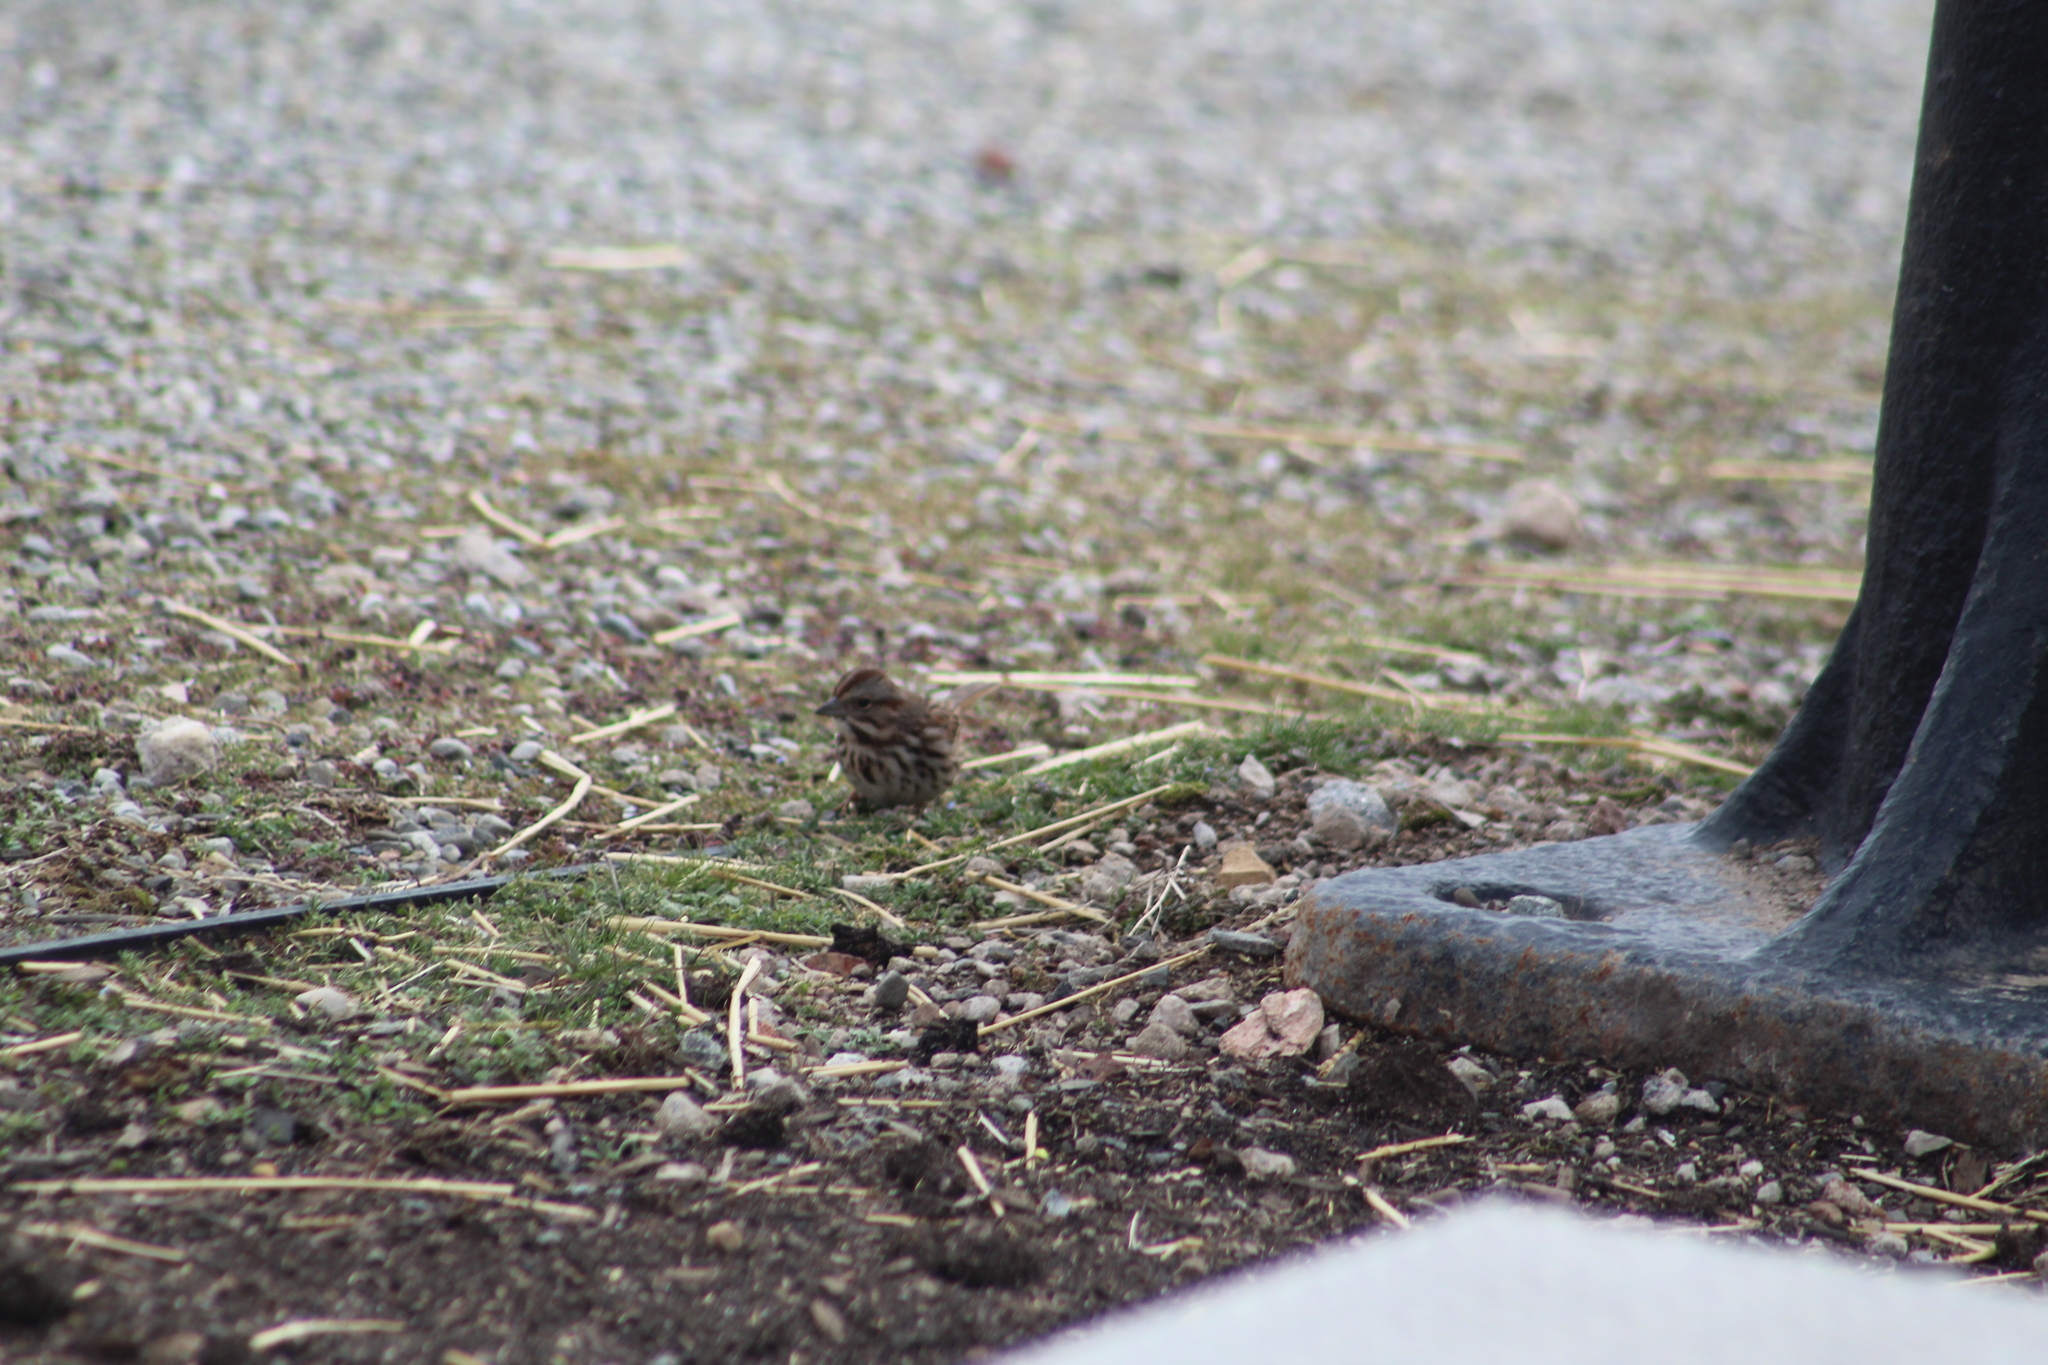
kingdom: Animalia
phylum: Chordata
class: Aves
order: Passeriformes
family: Passerellidae
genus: Melospiza
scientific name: Melospiza melodia
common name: Song sparrow
